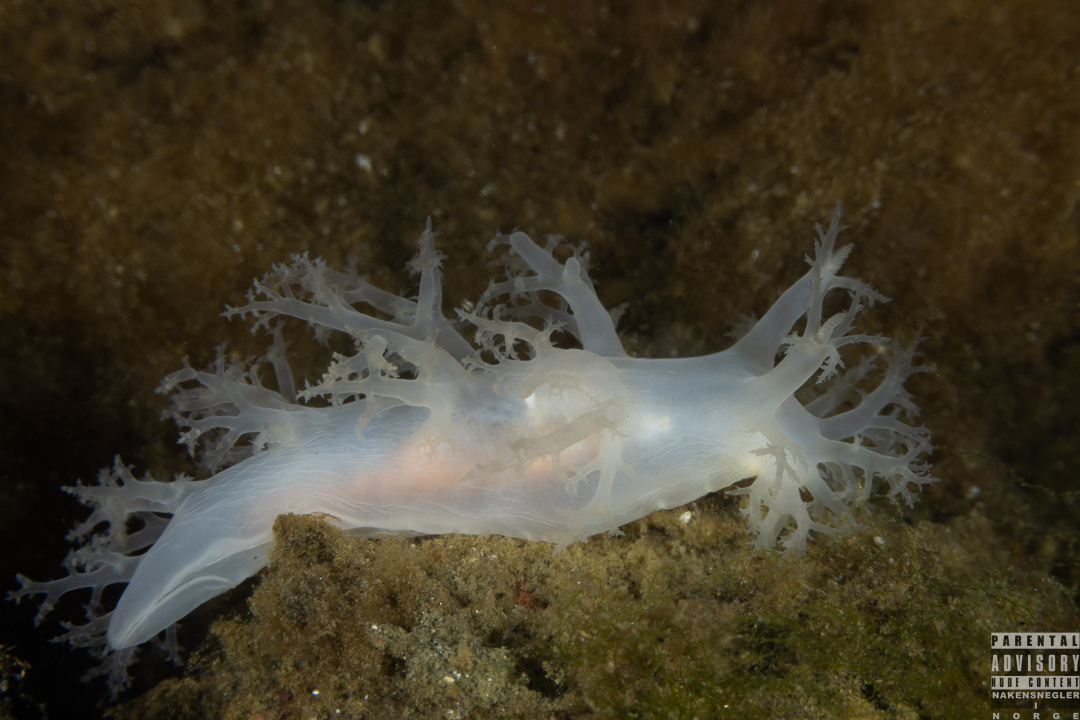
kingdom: Animalia
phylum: Mollusca
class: Gastropoda
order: Nudibranchia
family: Dendronotidae
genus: Dendronotus
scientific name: Dendronotus lacteus
